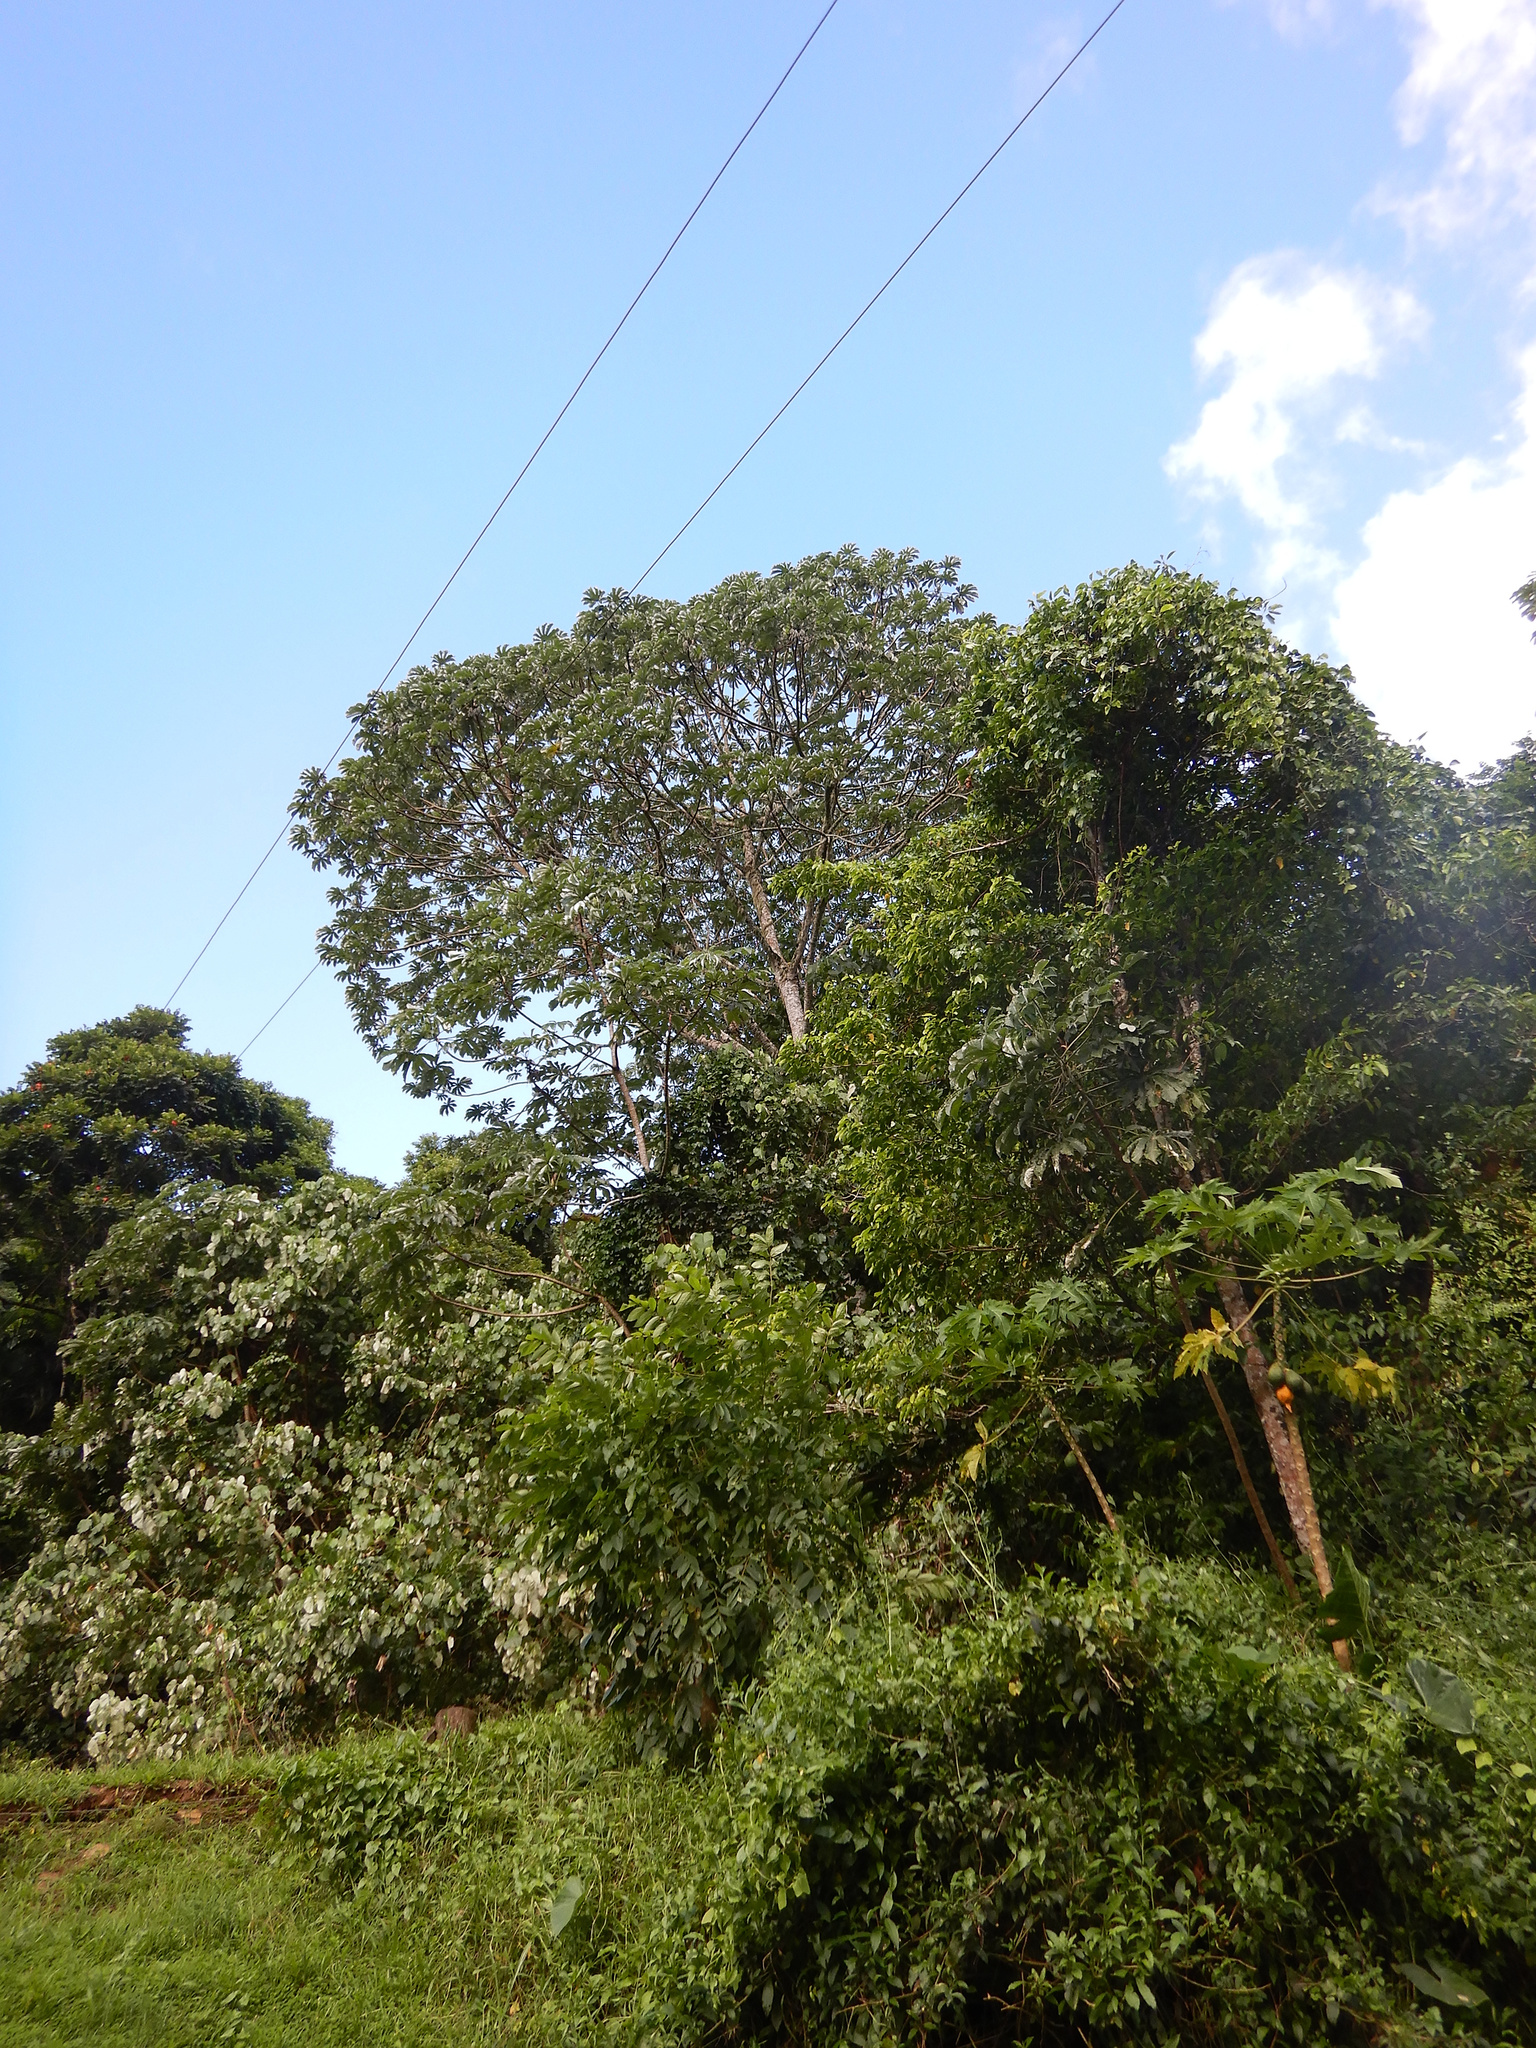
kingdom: Plantae
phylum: Tracheophyta
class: Magnoliopsida
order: Rosales
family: Urticaceae
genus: Cecropia
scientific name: Cecropia pachystachya
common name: Ambay pumpwood
